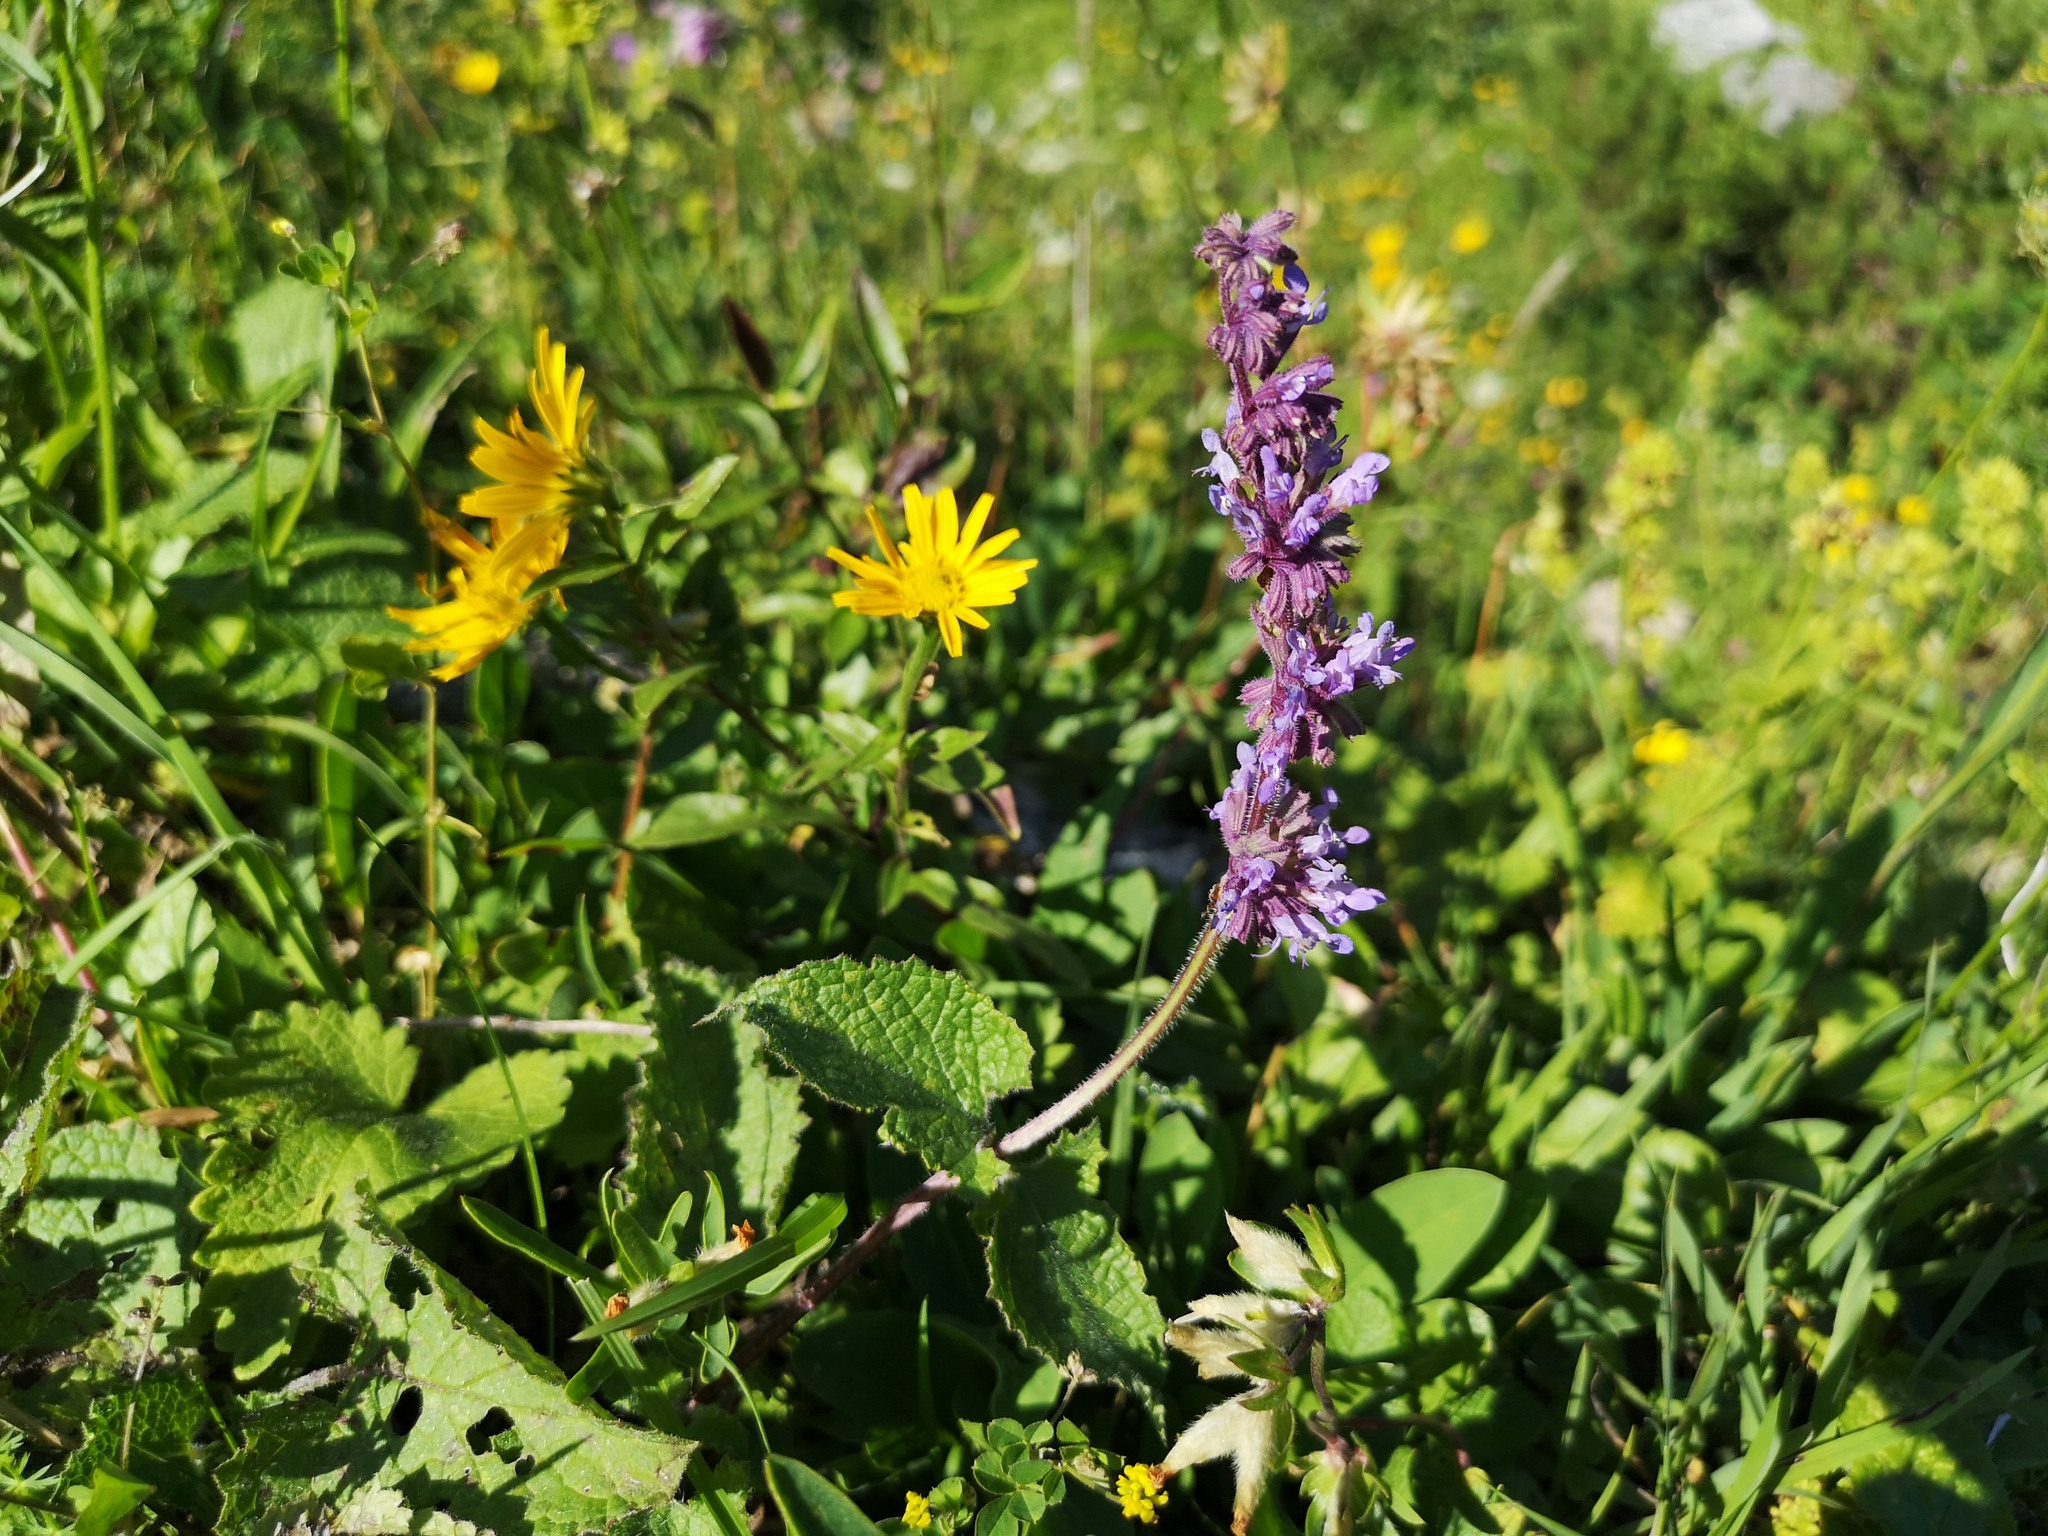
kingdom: Plantae
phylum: Tracheophyta
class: Magnoliopsida
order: Lamiales
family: Lamiaceae
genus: Salvia
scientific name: Salvia verticillata
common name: Whorled clary
